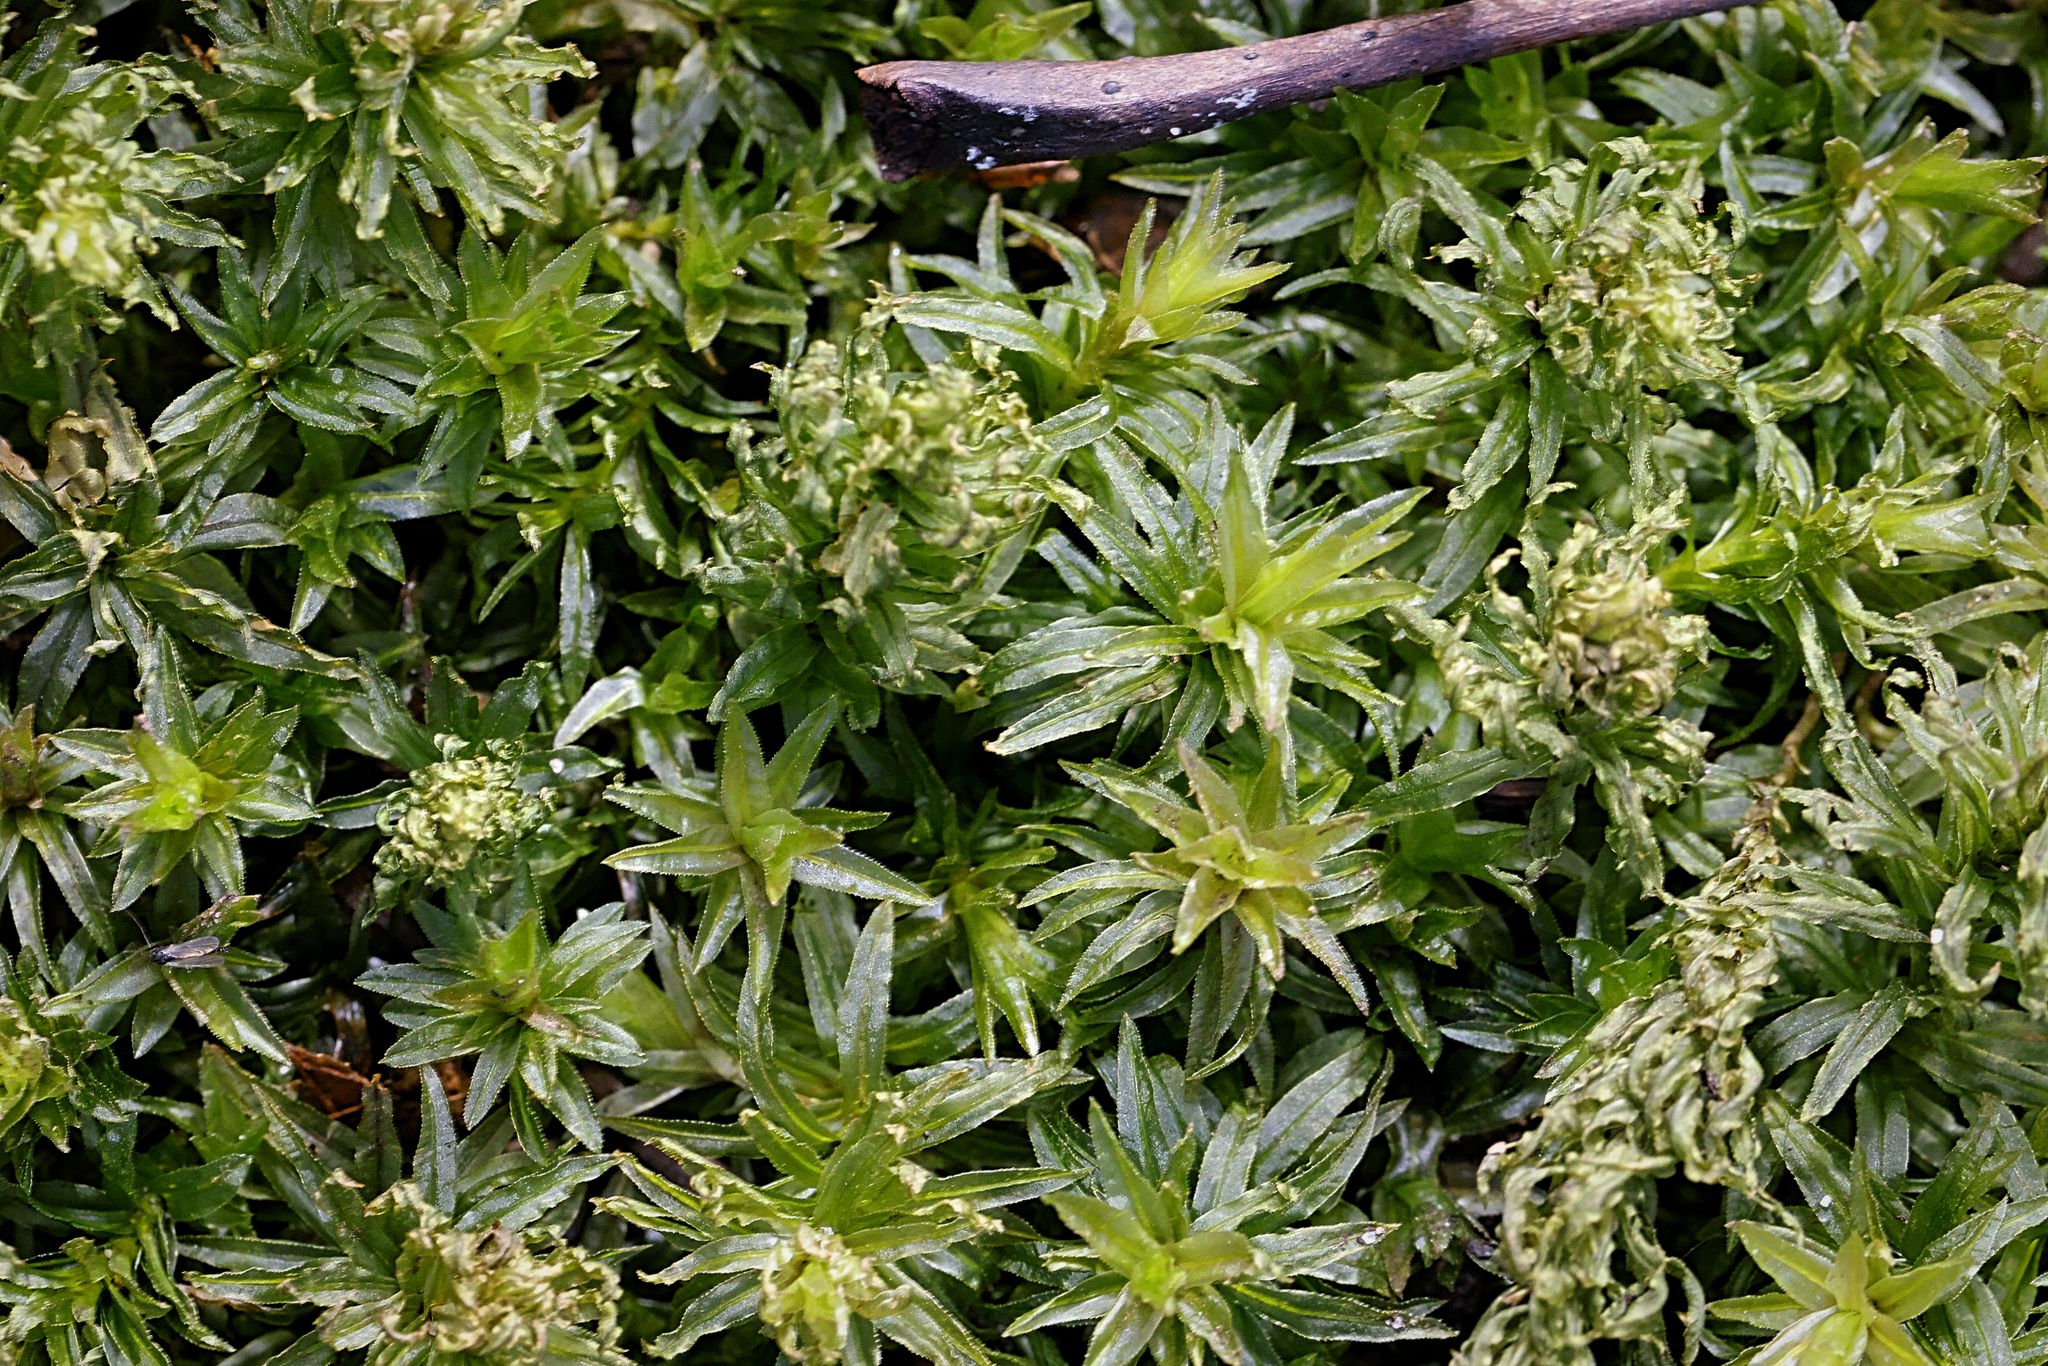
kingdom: Plantae
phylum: Bryophyta
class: Polytrichopsida
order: Polytrichales
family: Polytrichaceae
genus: Atrichum
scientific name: Atrichum undulatum
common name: Common smoothcap
